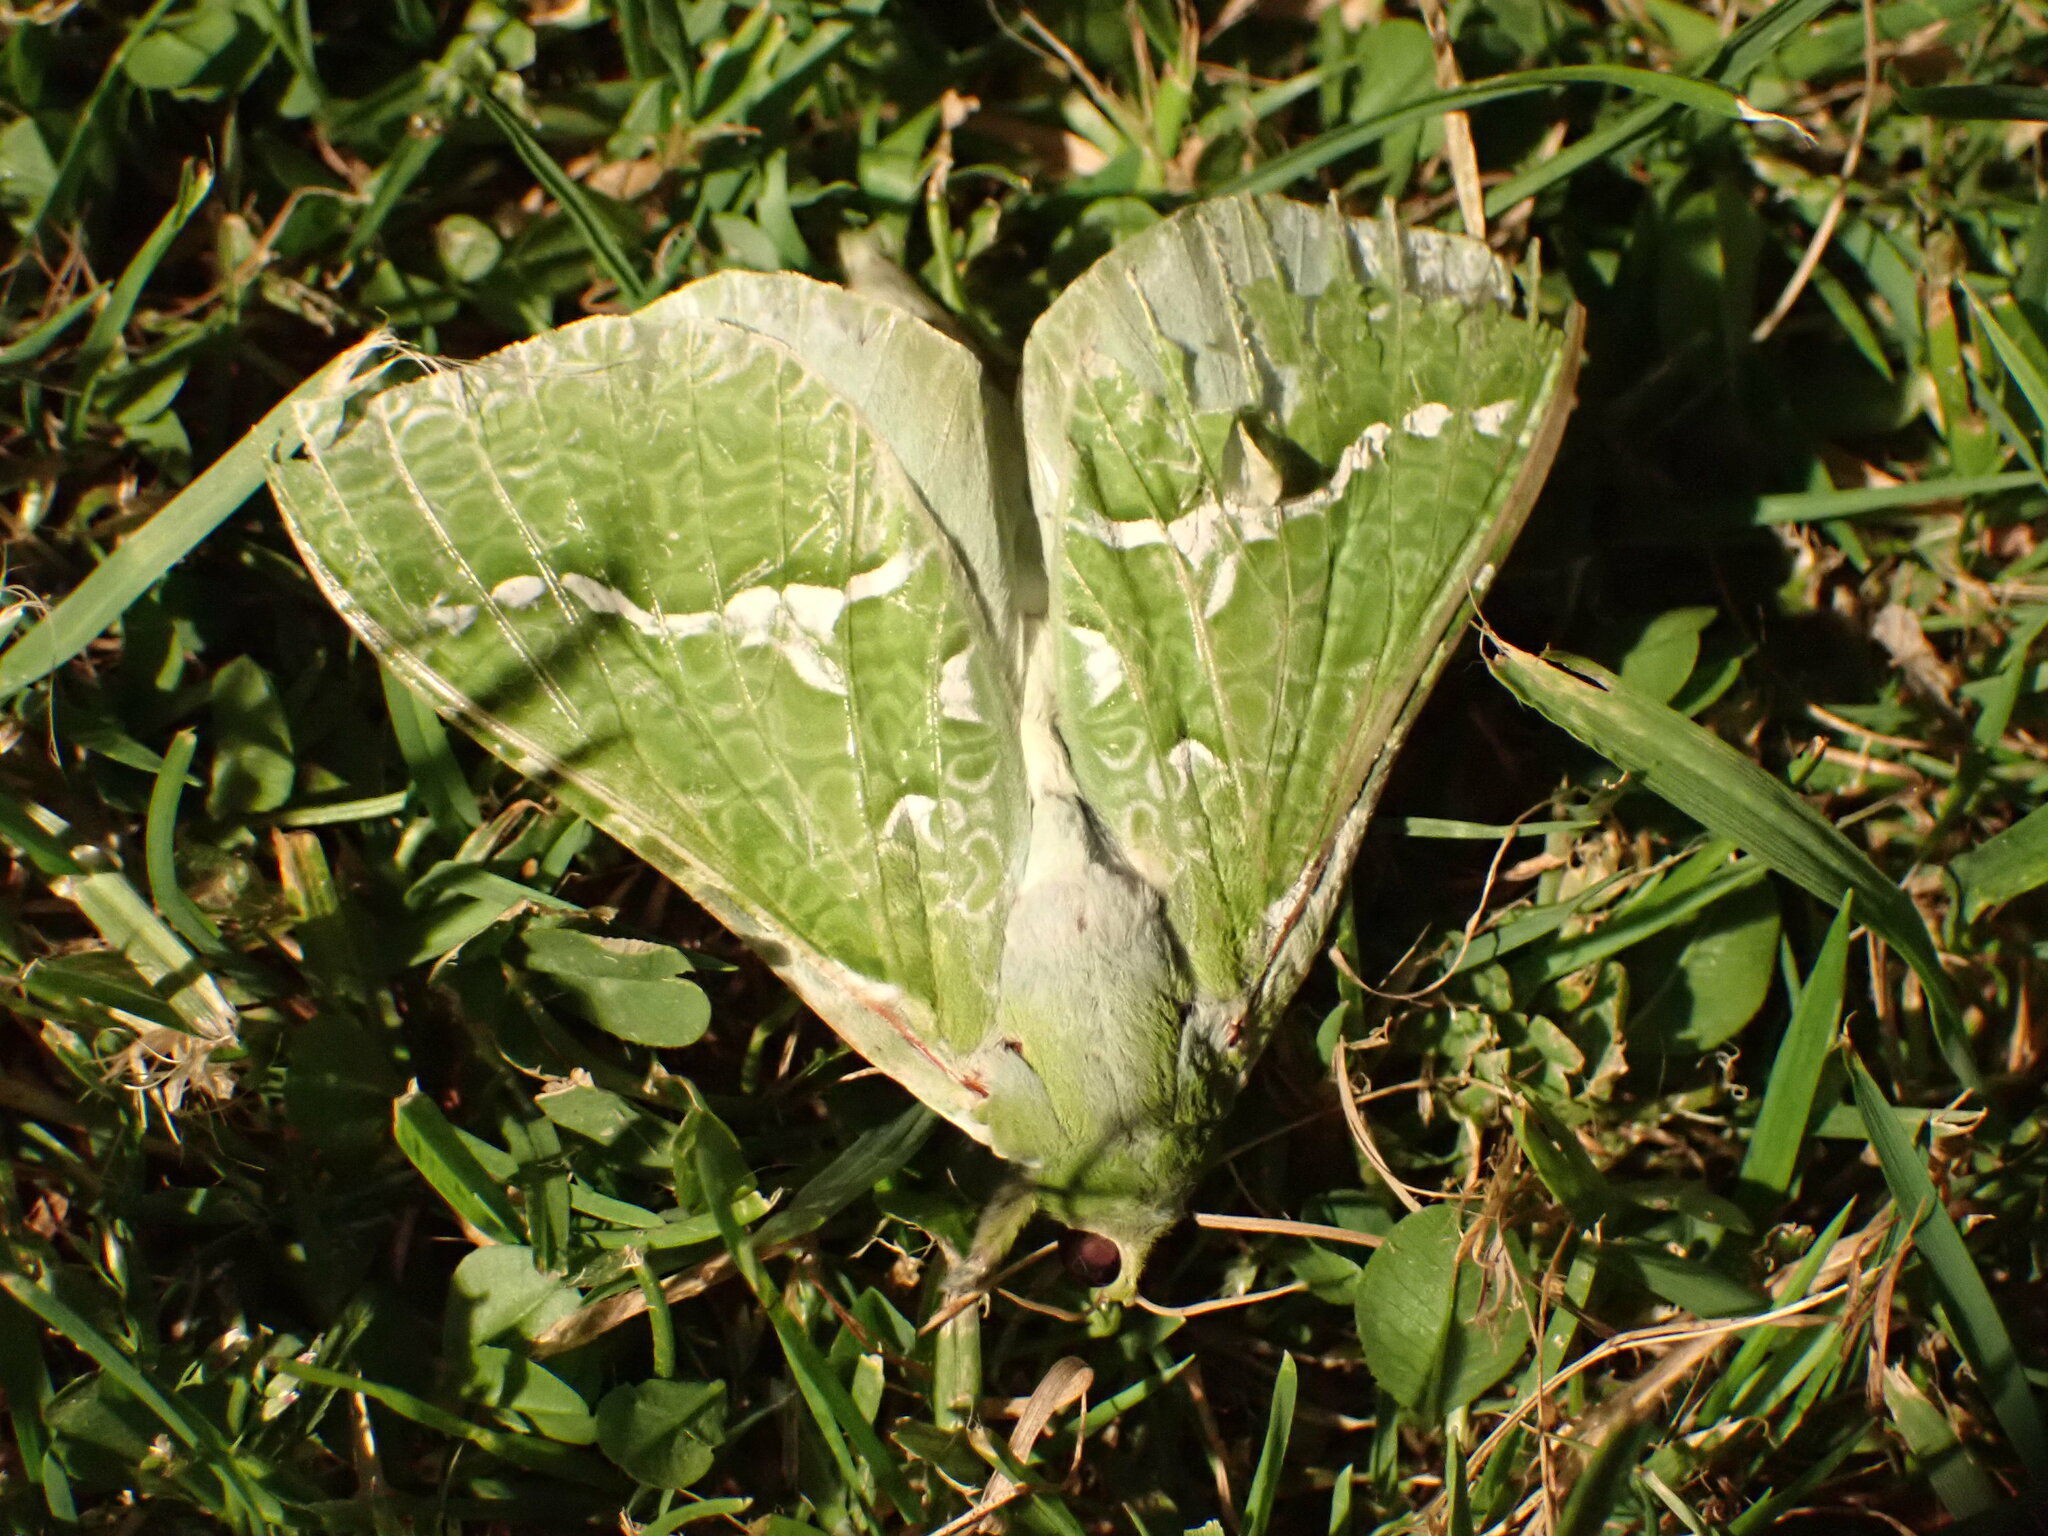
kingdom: Animalia
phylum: Arthropoda
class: Insecta
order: Lepidoptera
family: Hepialidae
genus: Aenetus
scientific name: Aenetus virescens
